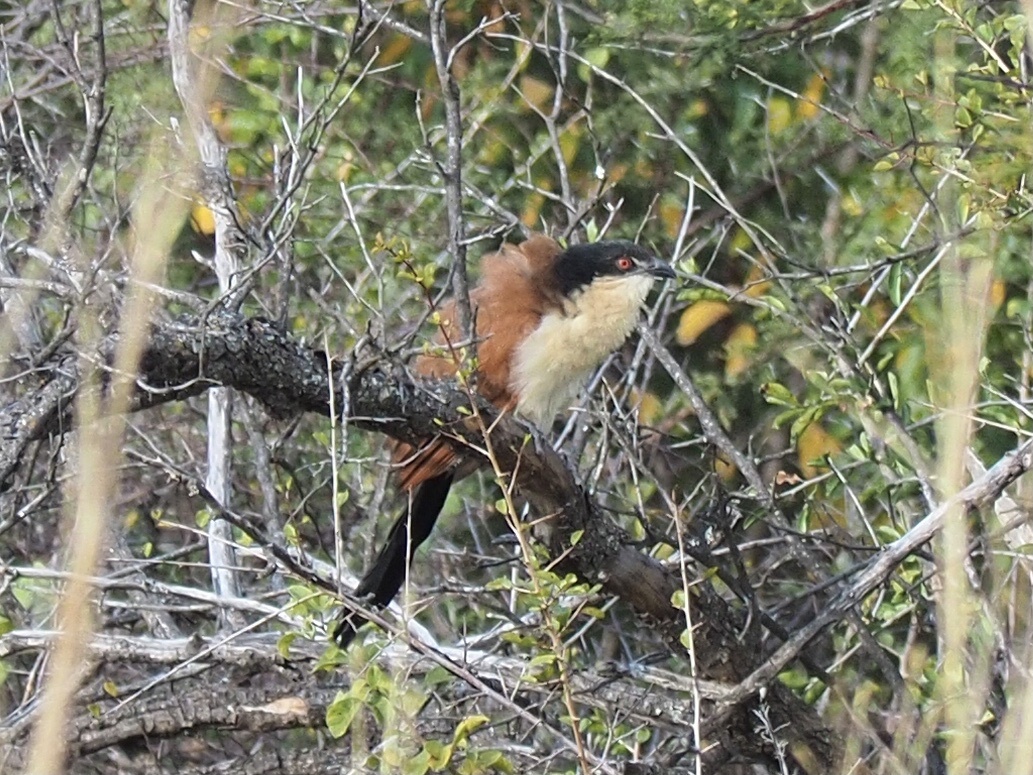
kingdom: Animalia
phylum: Chordata
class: Aves
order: Cuculiformes
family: Cuculidae
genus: Centropus
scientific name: Centropus senegalensis
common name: Senegal coucal
